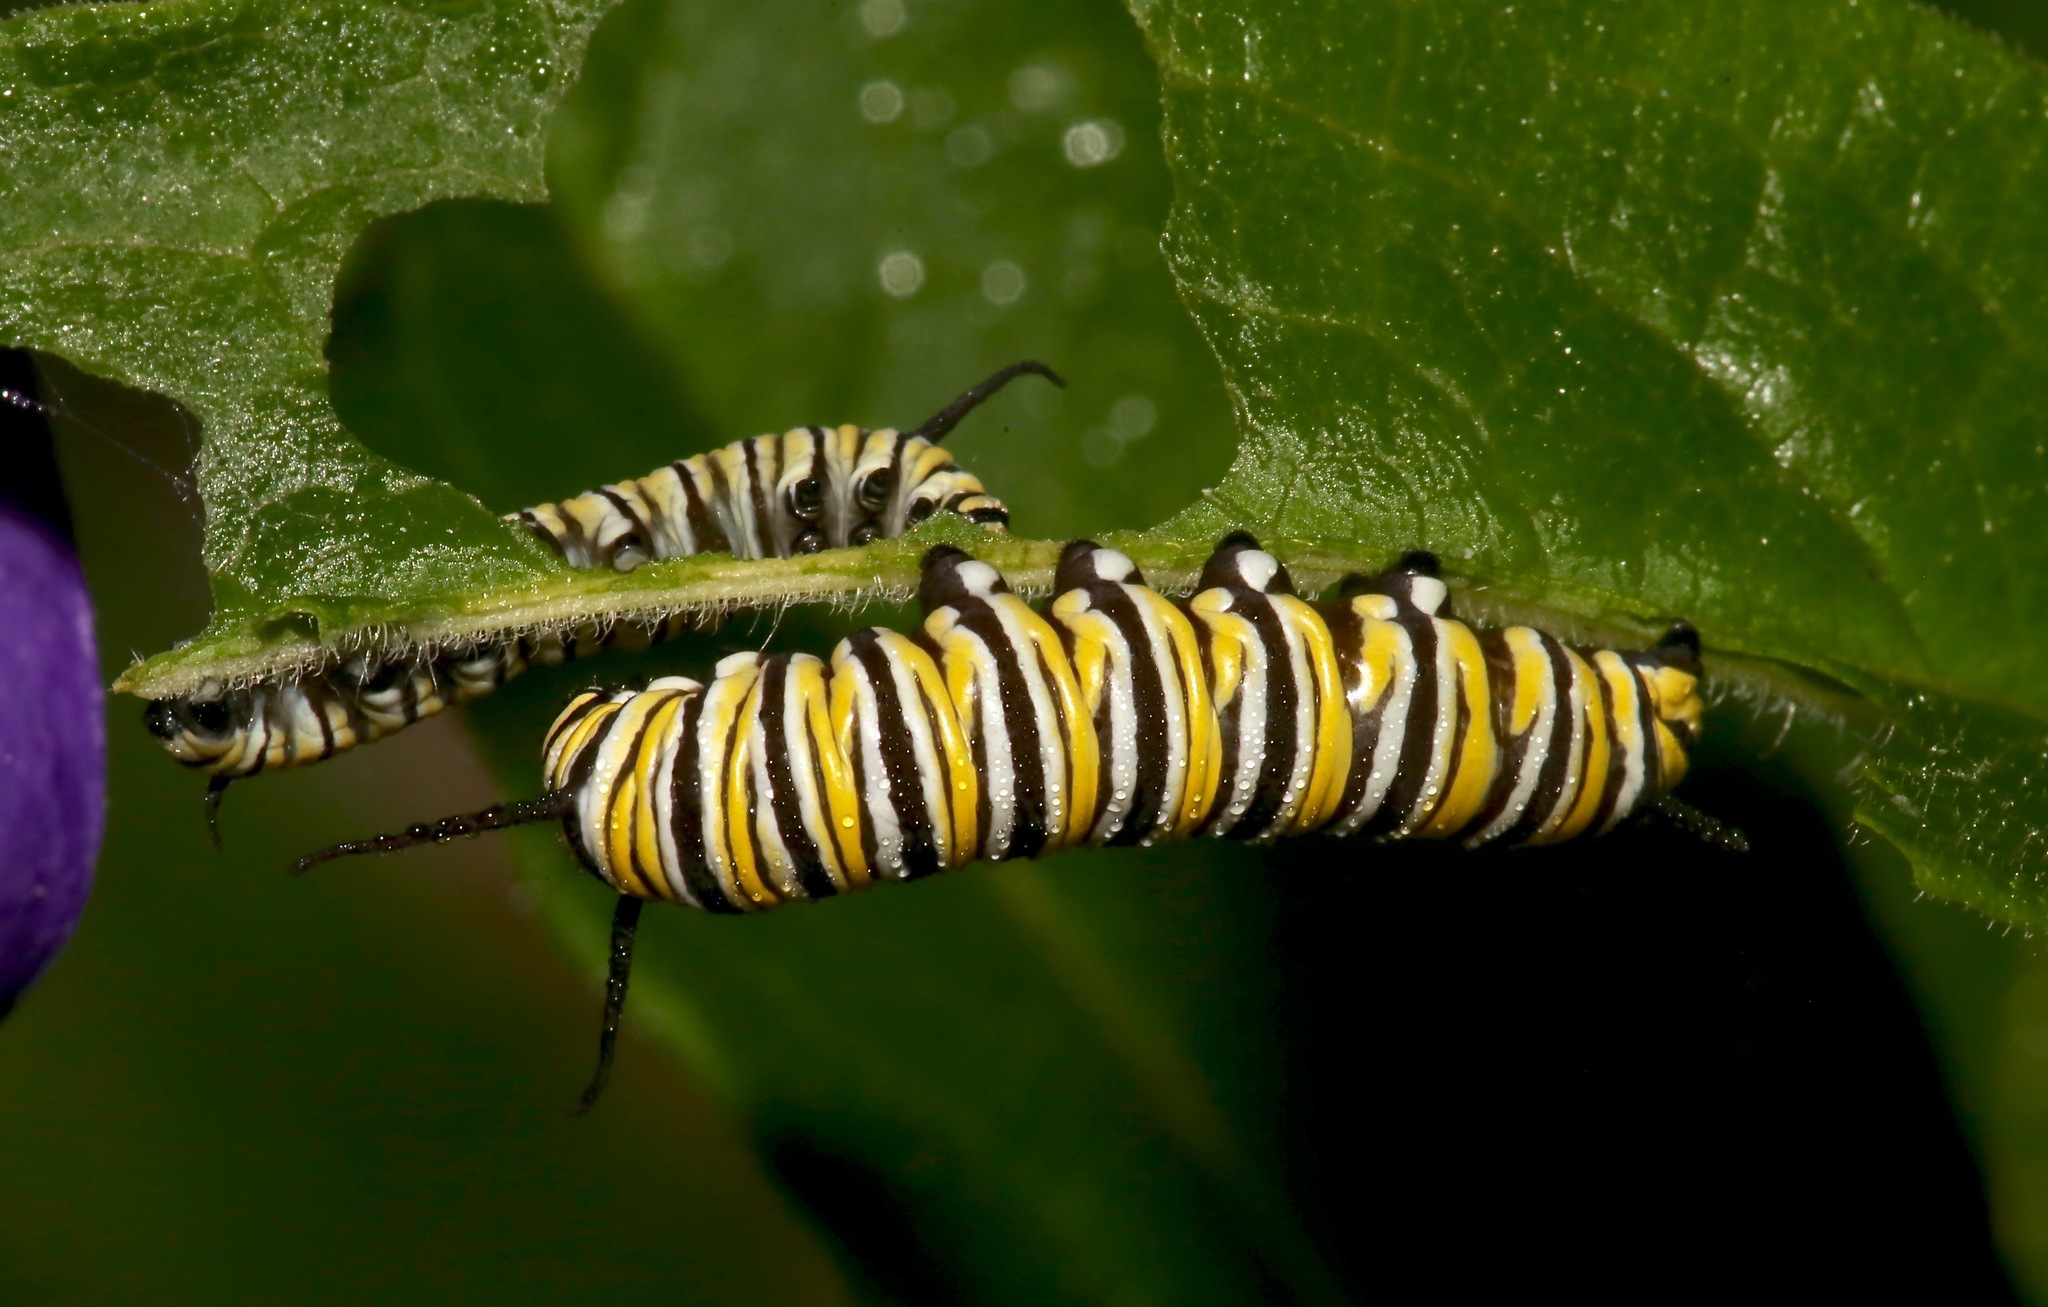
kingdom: Animalia
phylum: Arthropoda
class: Insecta
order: Lepidoptera
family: Nymphalidae
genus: Danaus
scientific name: Danaus plexippus
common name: Monarch
